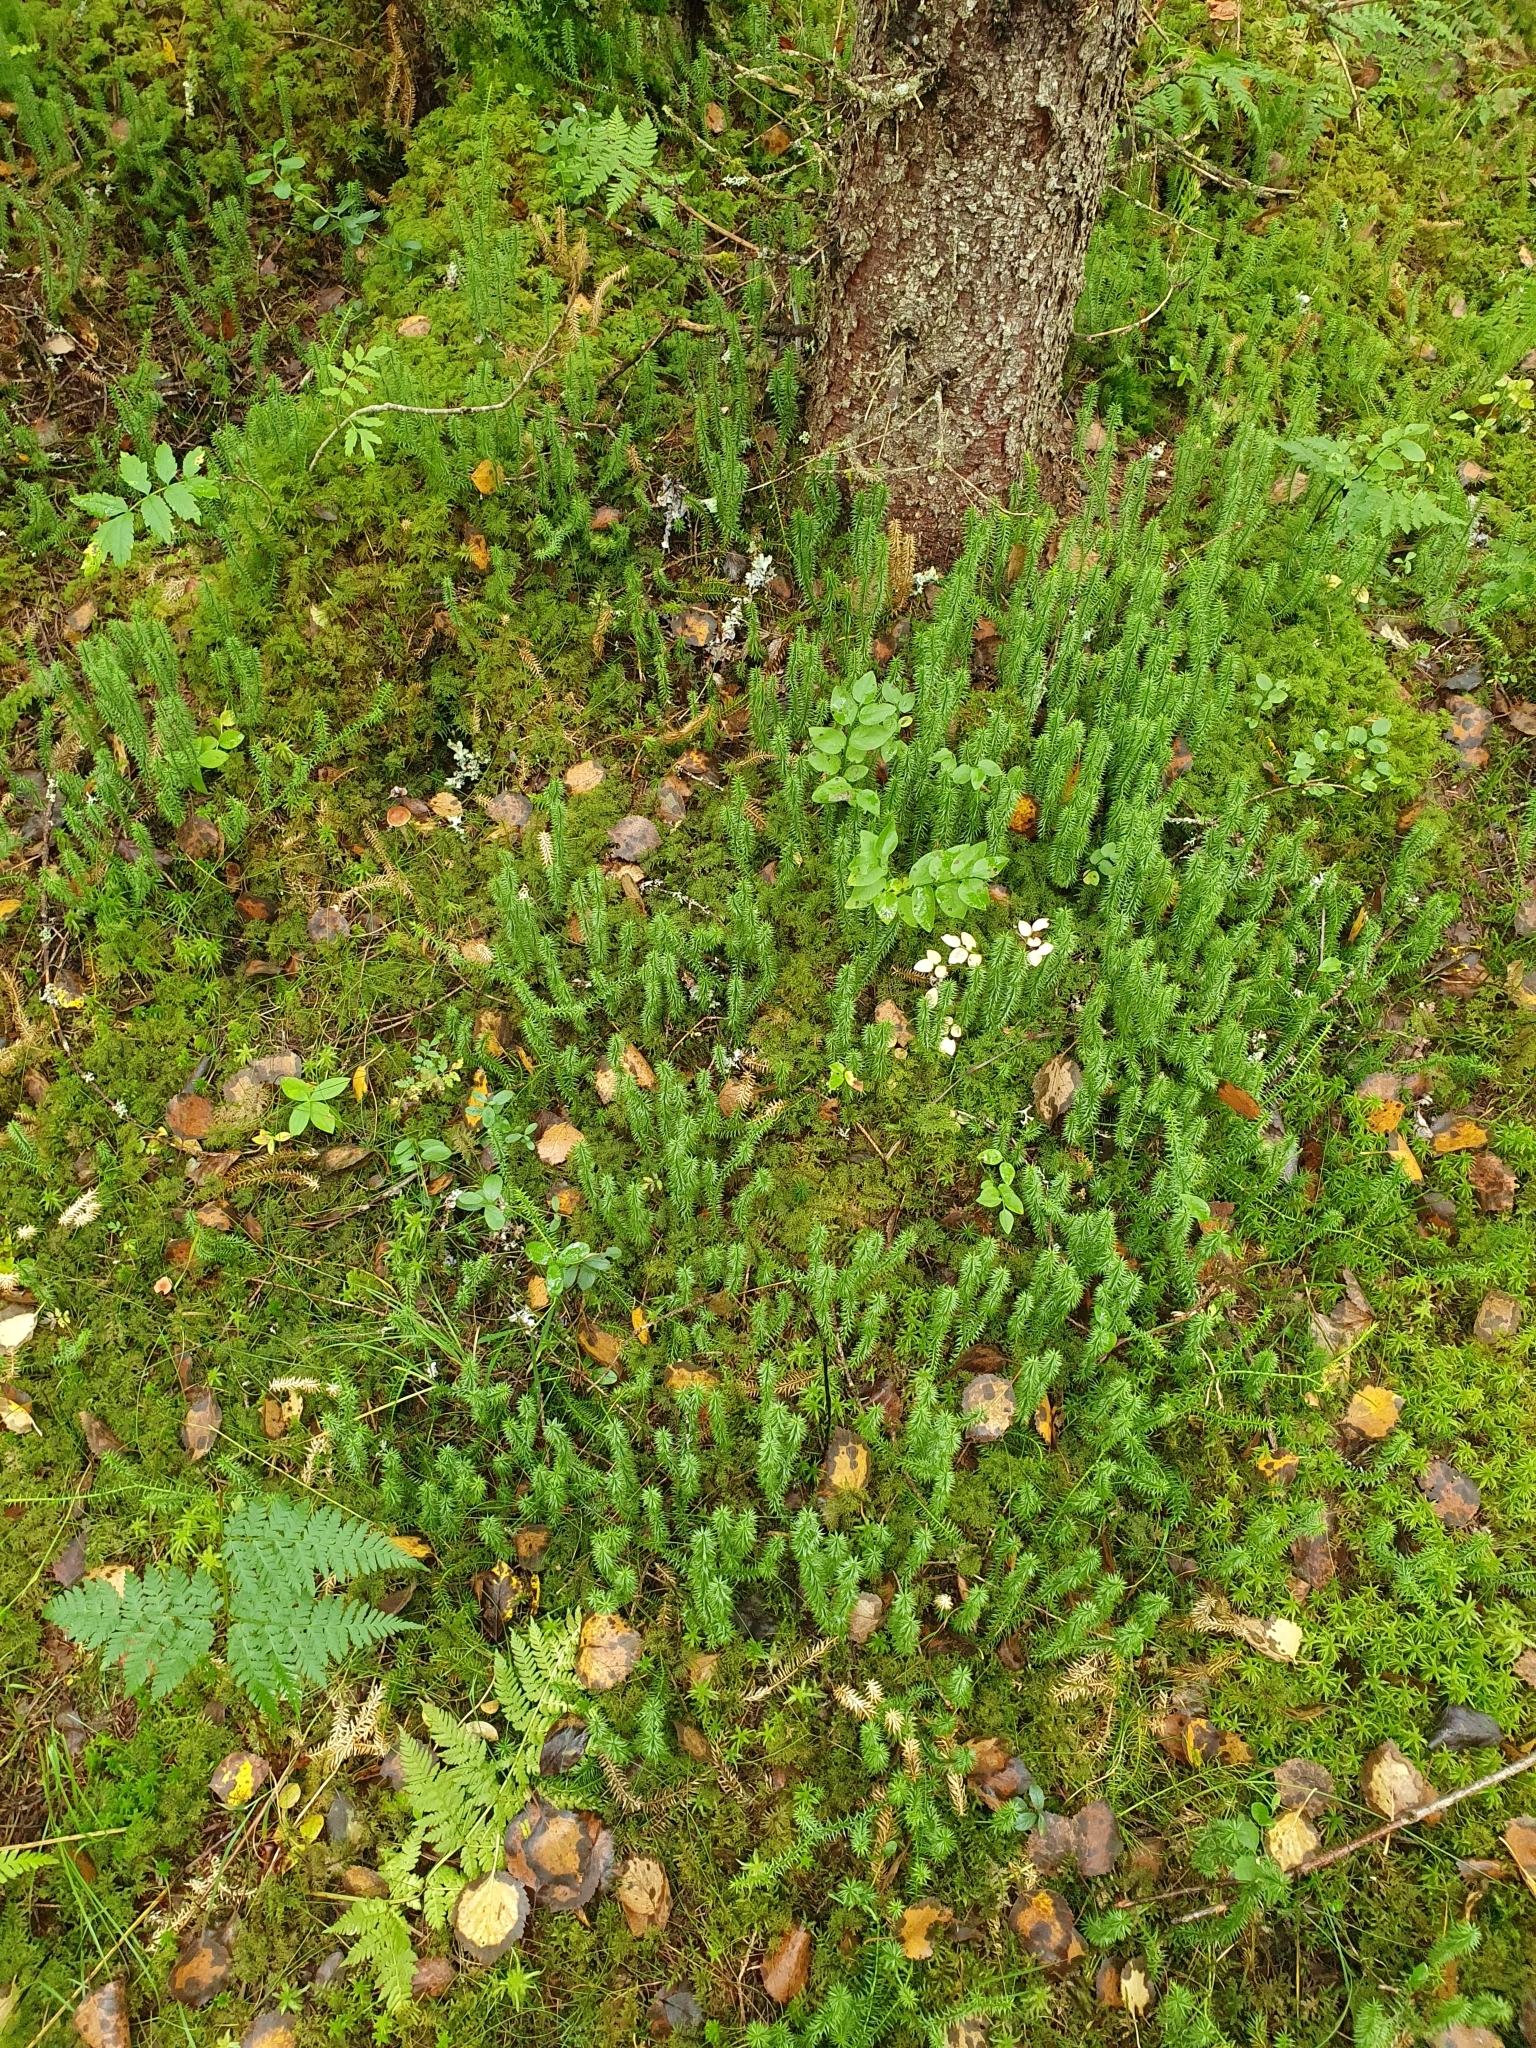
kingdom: Plantae
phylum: Tracheophyta
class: Lycopodiopsida
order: Lycopodiales
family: Lycopodiaceae
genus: Spinulum
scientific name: Spinulum annotinum
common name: Interrupted club-moss
